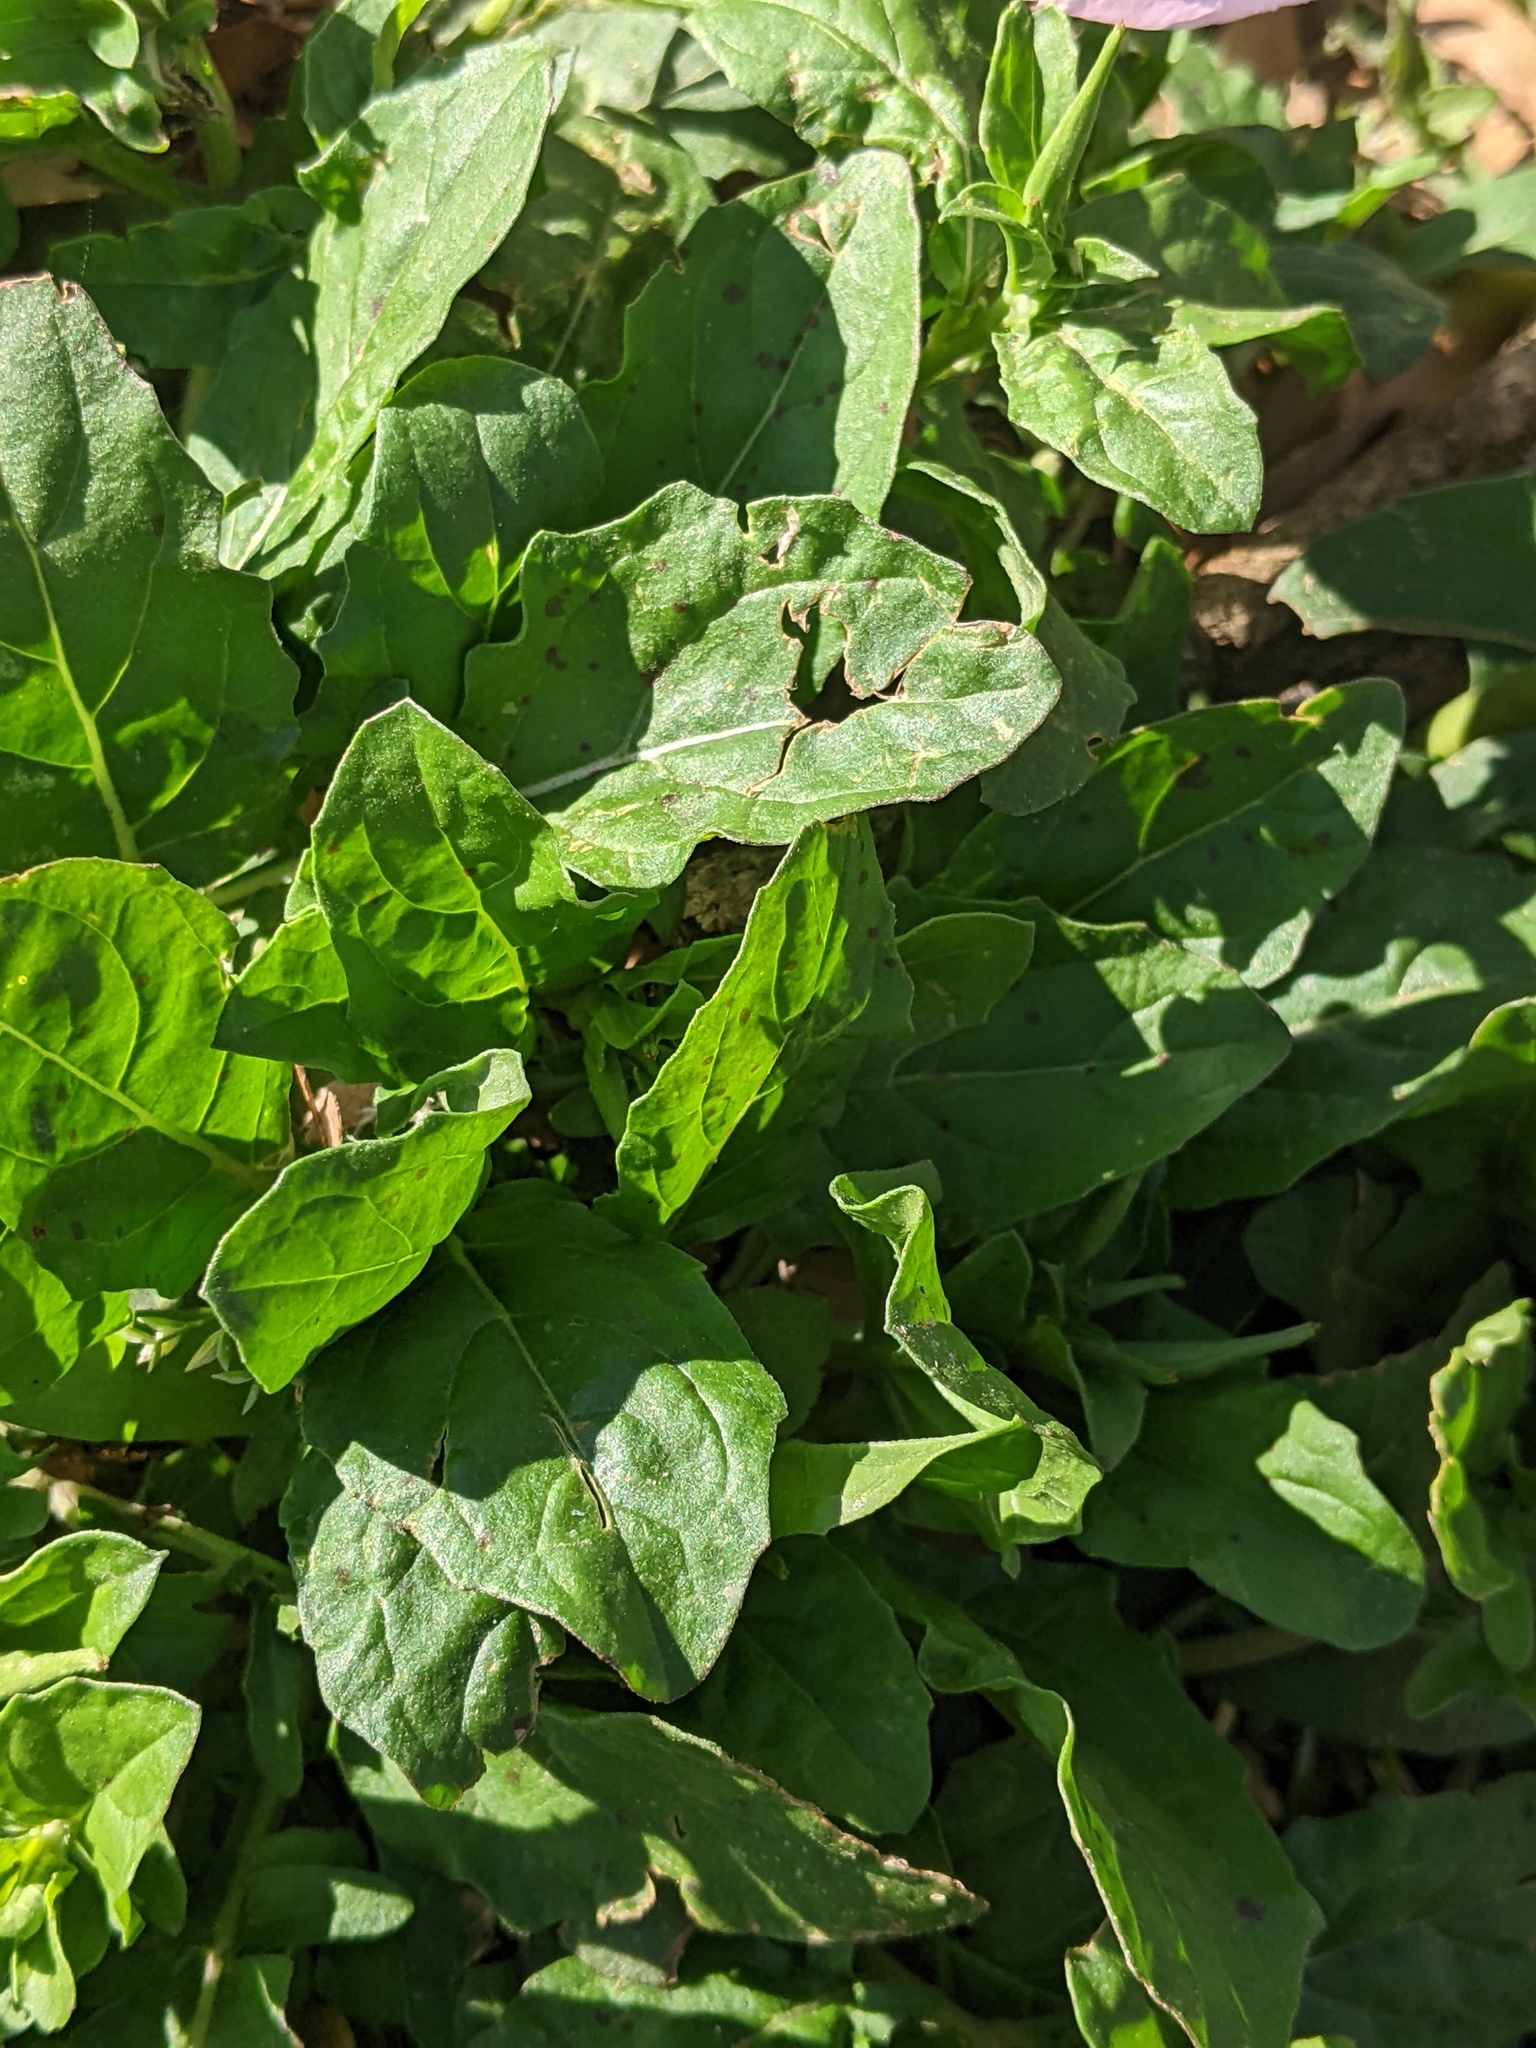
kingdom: Plantae
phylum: Tracheophyta
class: Magnoliopsida
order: Myrtales
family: Onagraceae
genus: Oenothera
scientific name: Oenothera speciosa
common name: White evening-primrose
